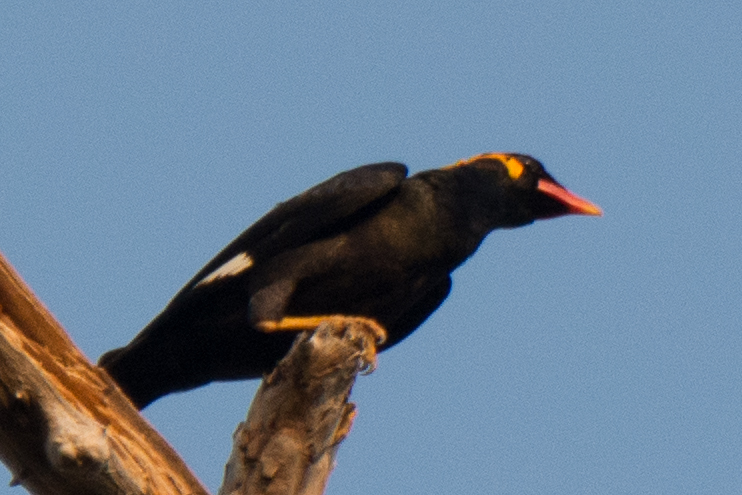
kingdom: Animalia
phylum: Chordata
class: Aves
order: Passeriformes
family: Sturnidae
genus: Gracula
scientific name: Gracula religiosa
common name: Common hill myna
